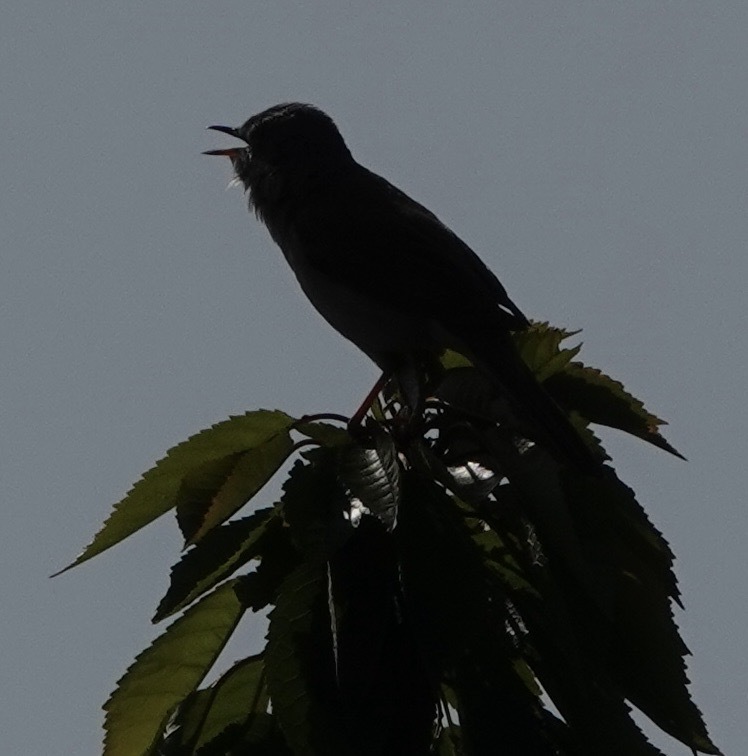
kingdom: Animalia
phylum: Chordata
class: Aves
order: Passeriformes
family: Sylviidae
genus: Sylvia
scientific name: Sylvia communis
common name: Common whitethroat
